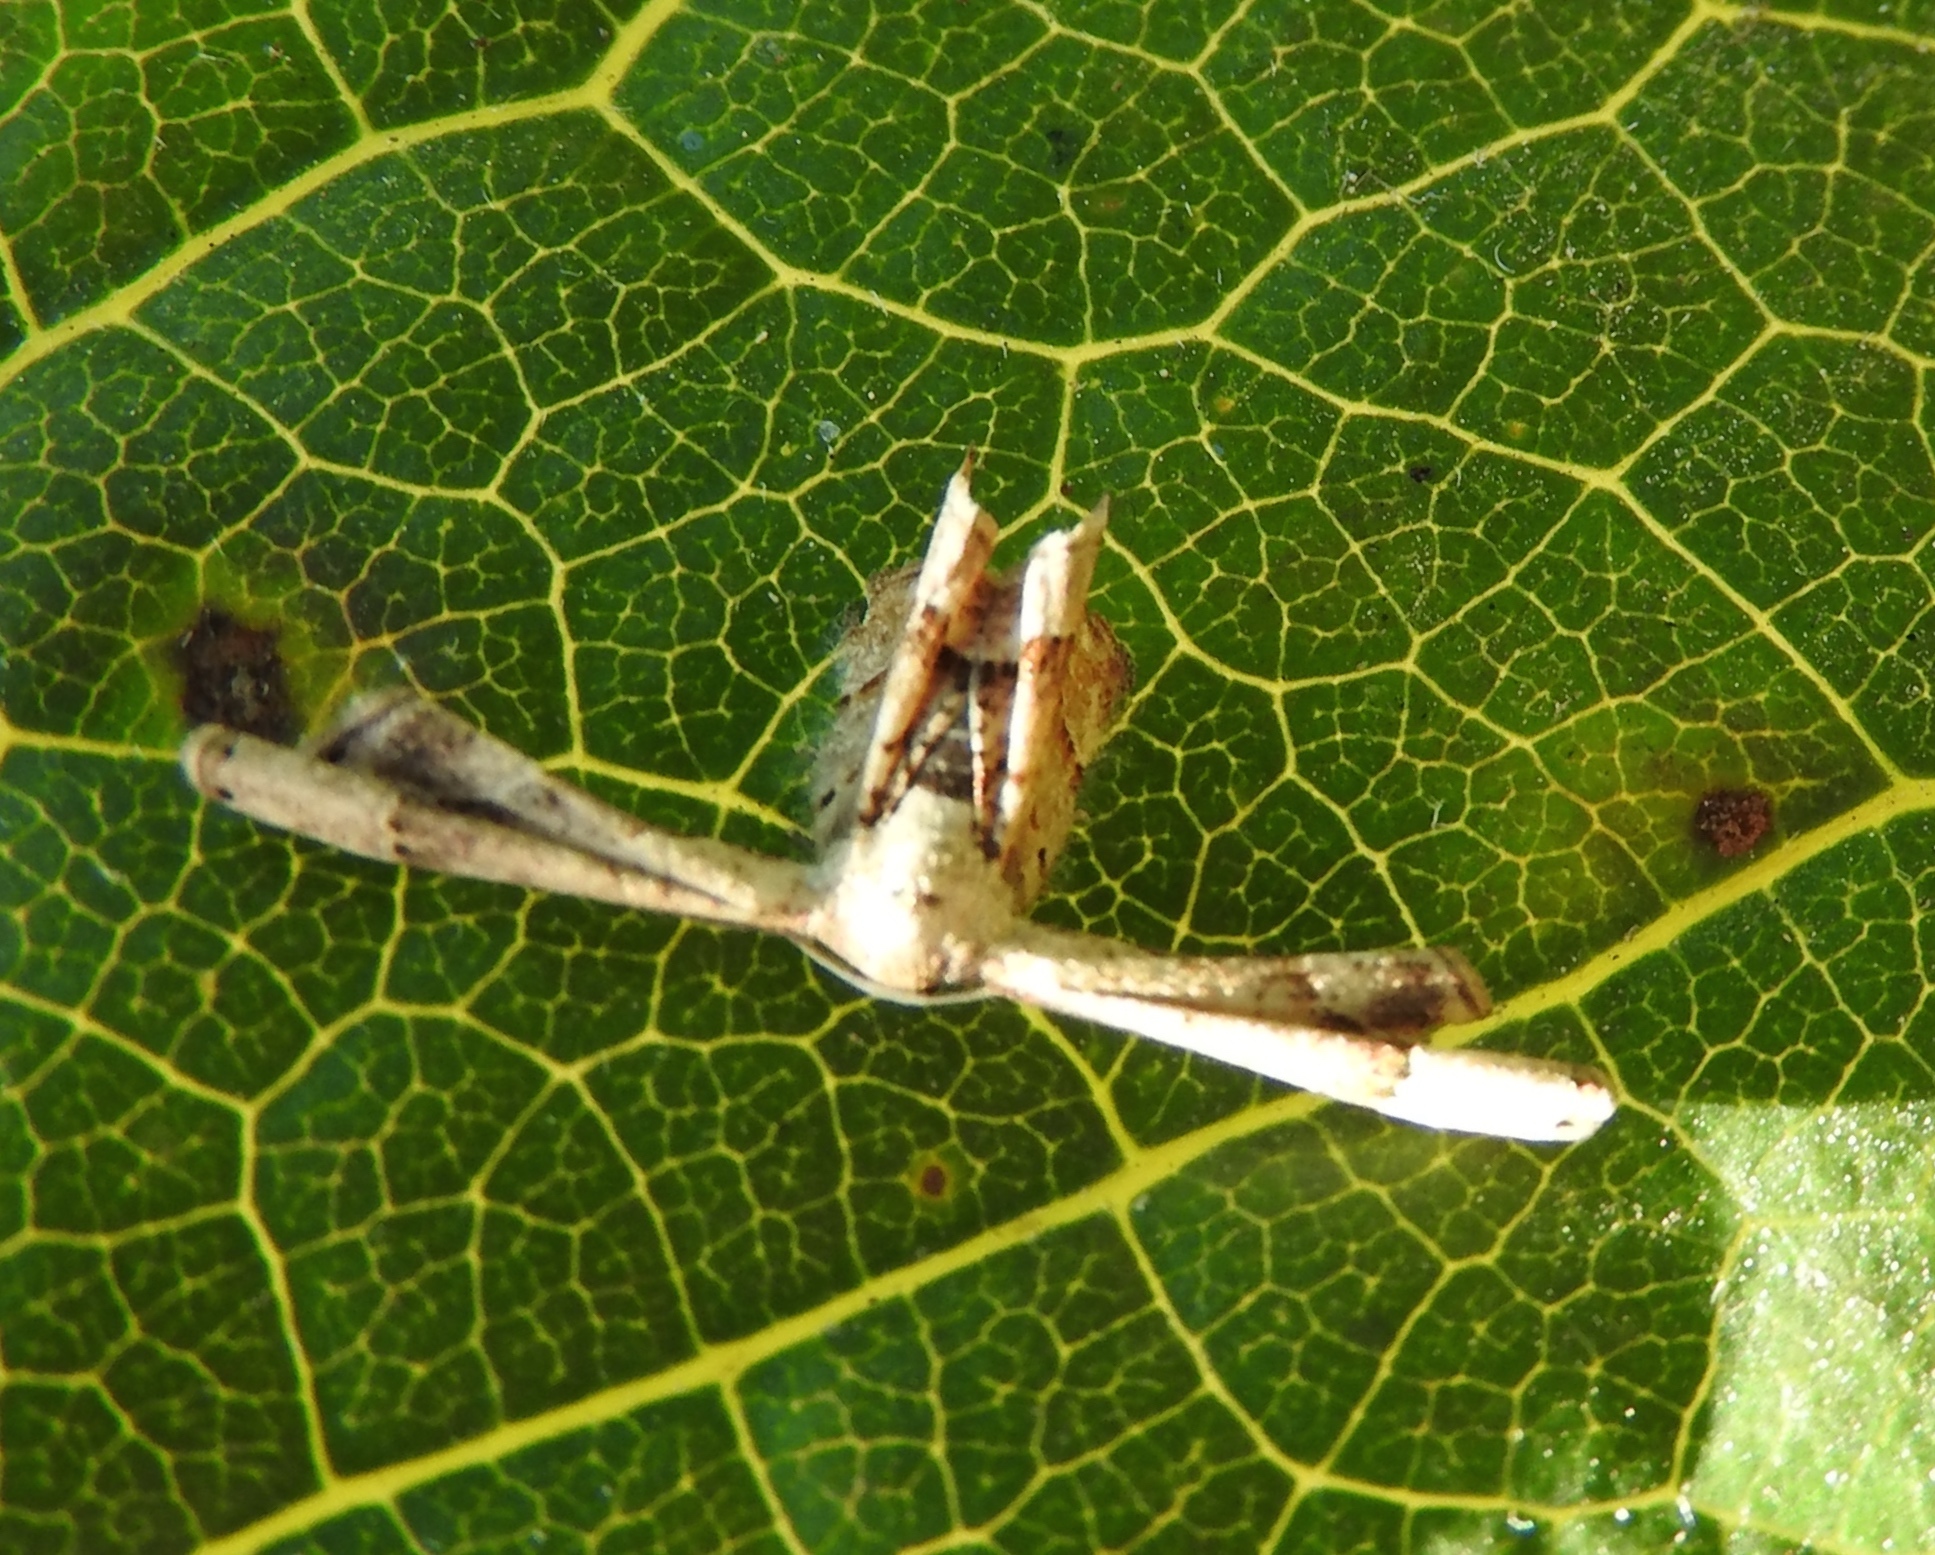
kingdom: Animalia
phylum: Arthropoda
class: Insecta
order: Lepidoptera
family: Uraniidae
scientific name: Uraniidae
